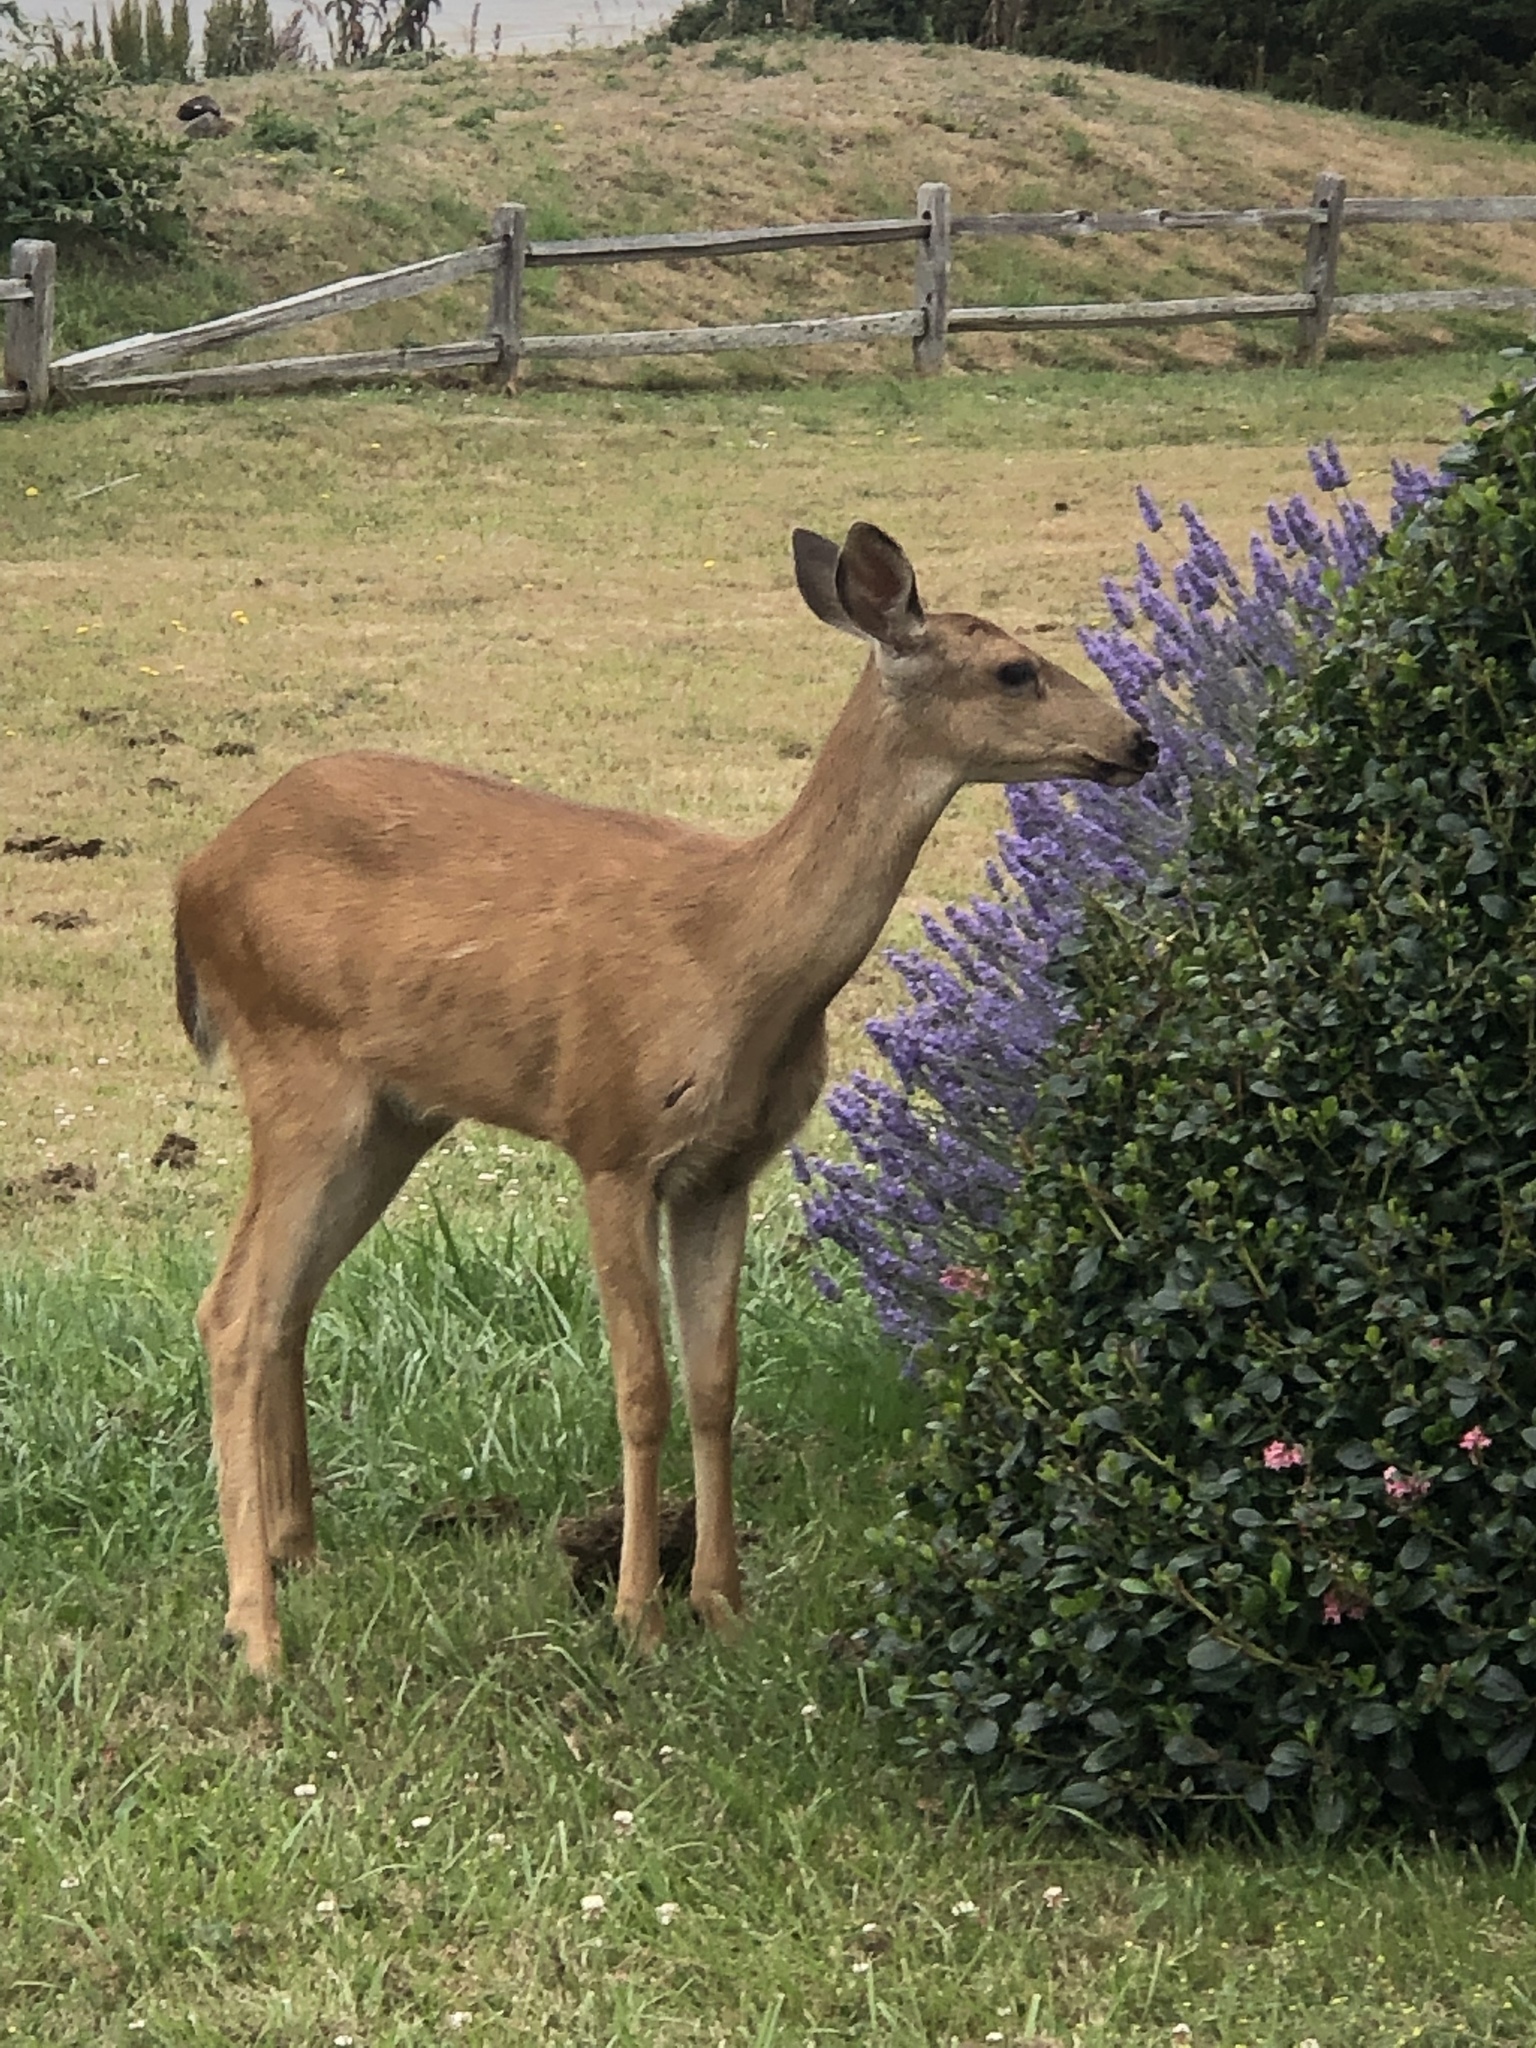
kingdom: Animalia
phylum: Chordata
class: Mammalia
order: Artiodactyla
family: Cervidae
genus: Odocoileus
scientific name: Odocoileus hemionus
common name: Mule deer
